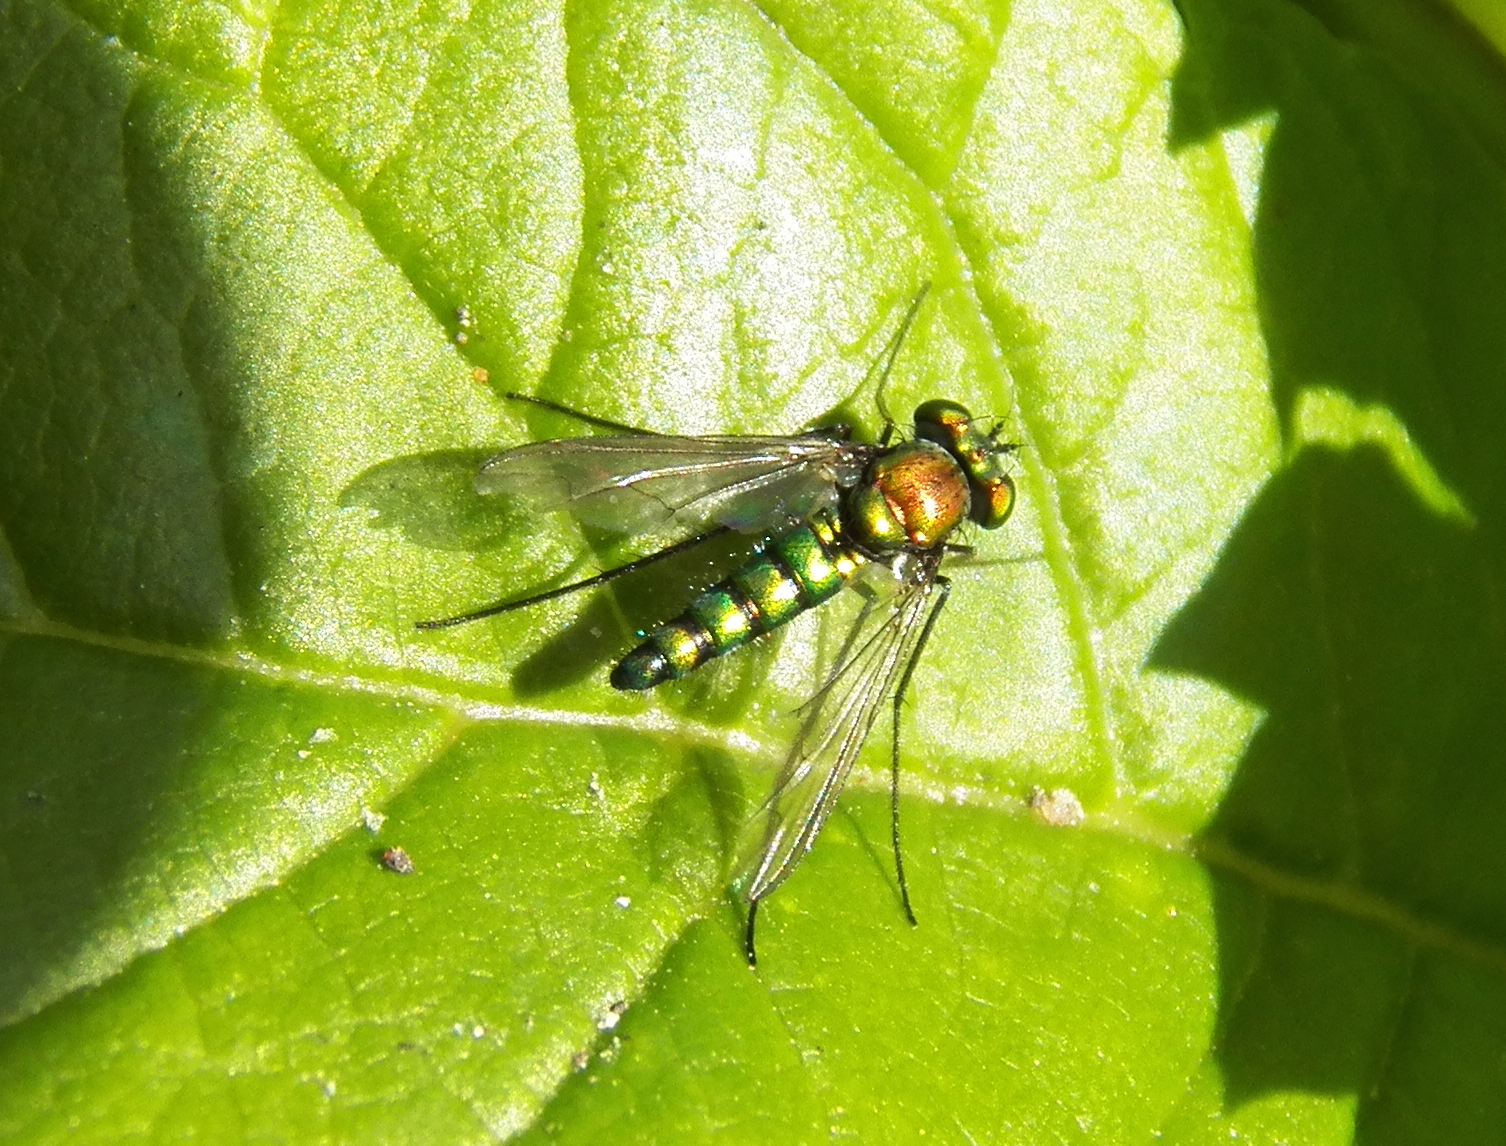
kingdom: Animalia
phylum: Arthropoda
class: Insecta
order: Diptera
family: Dolichopodidae
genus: Condylostylus
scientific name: Condylostylus longicornis
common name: Long-legged fly
